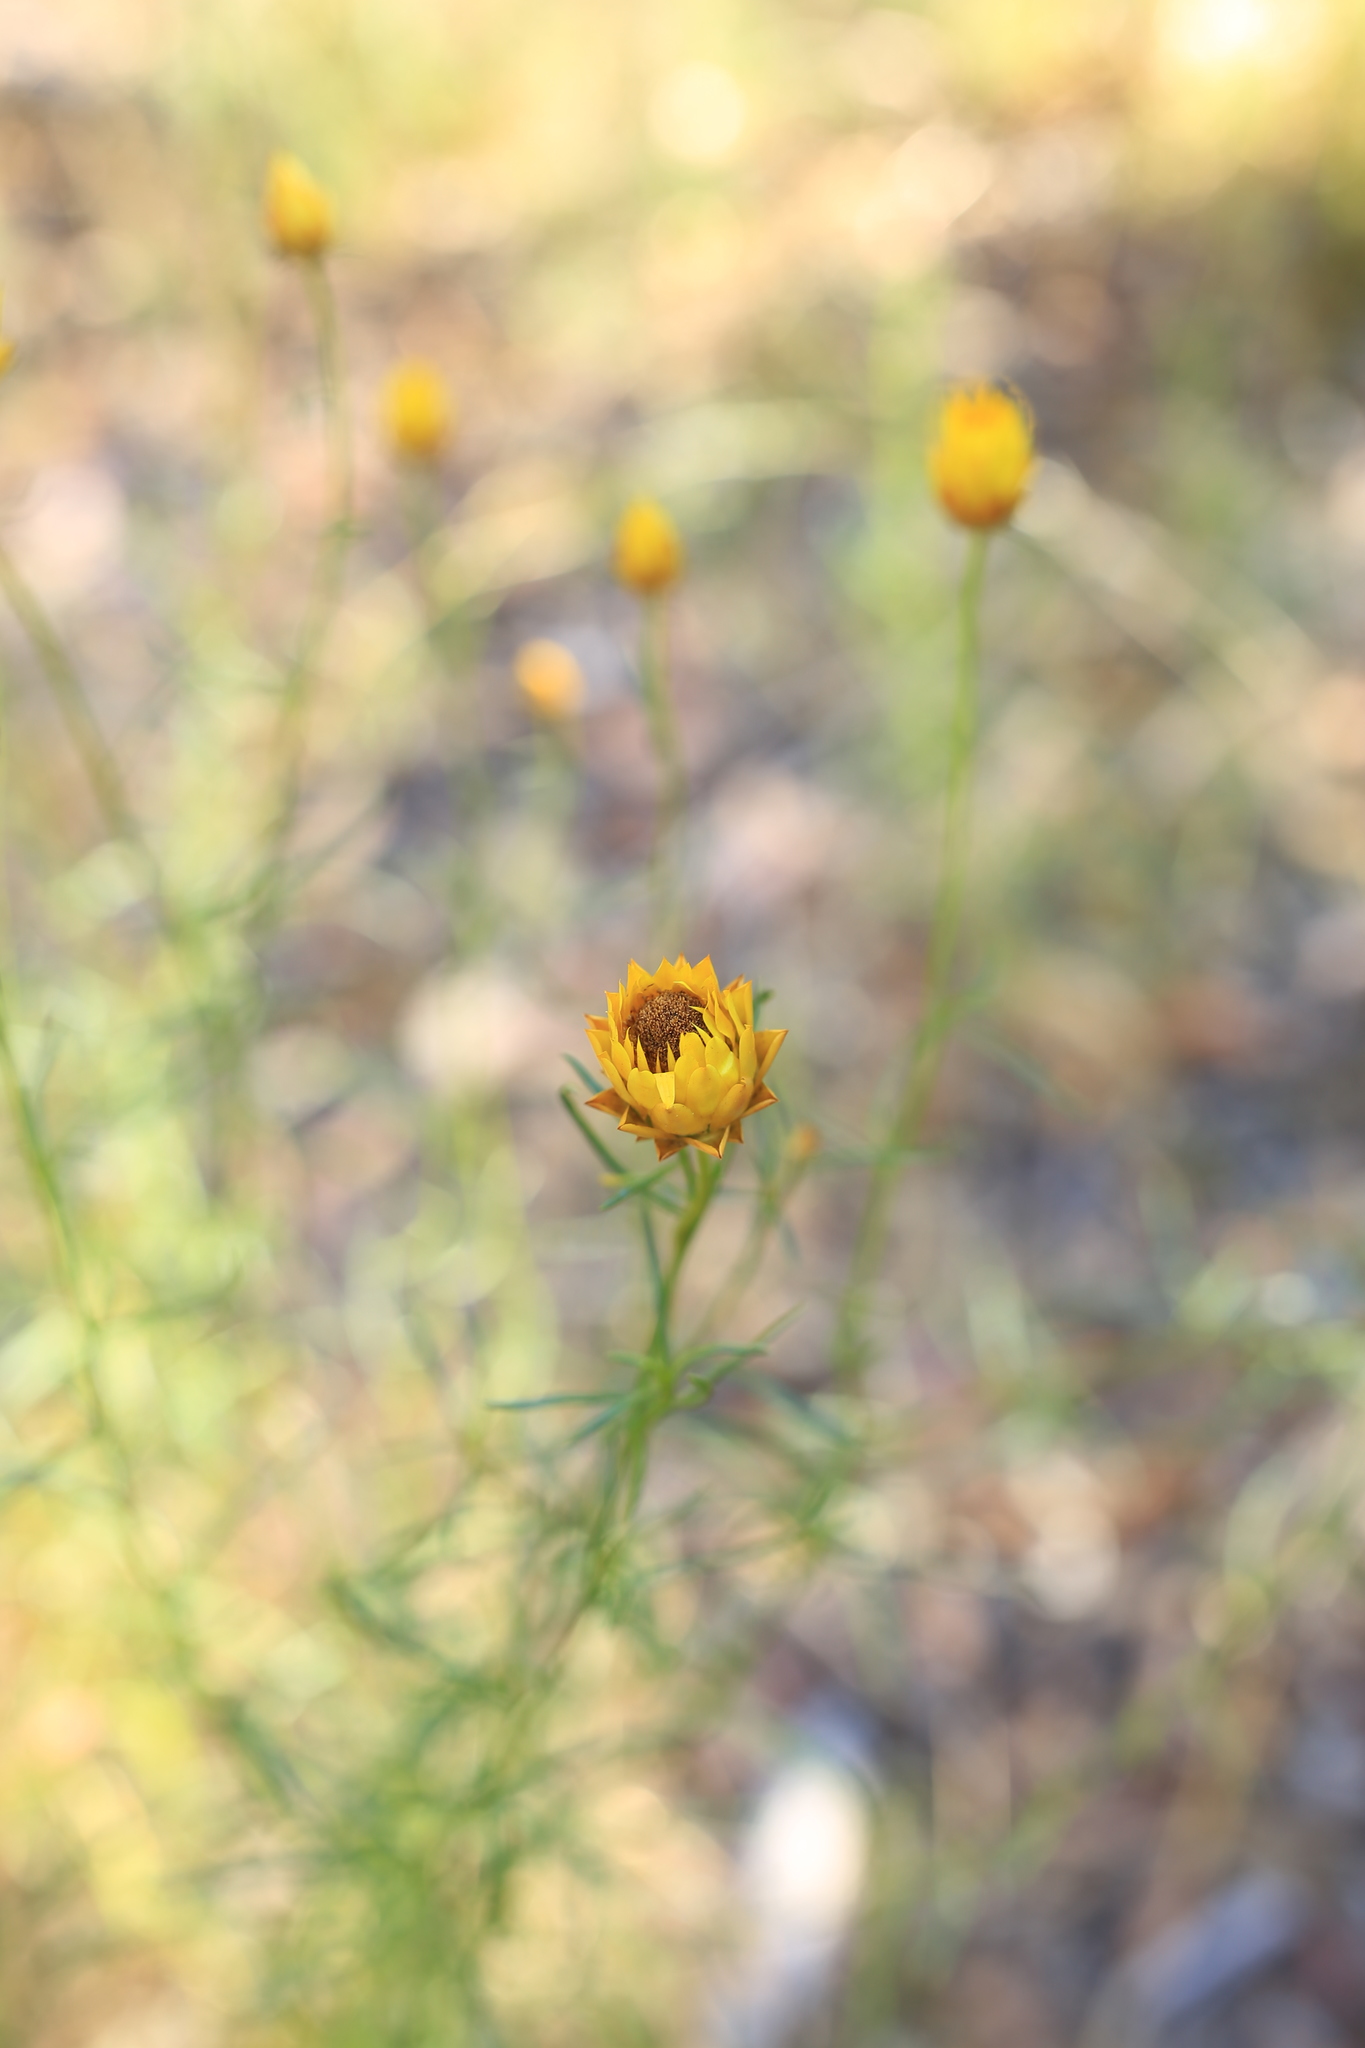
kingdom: Plantae
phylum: Tracheophyta
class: Magnoliopsida
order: Asterales
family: Asteraceae
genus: Xerochrysum
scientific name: Xerochrysum viscosum
